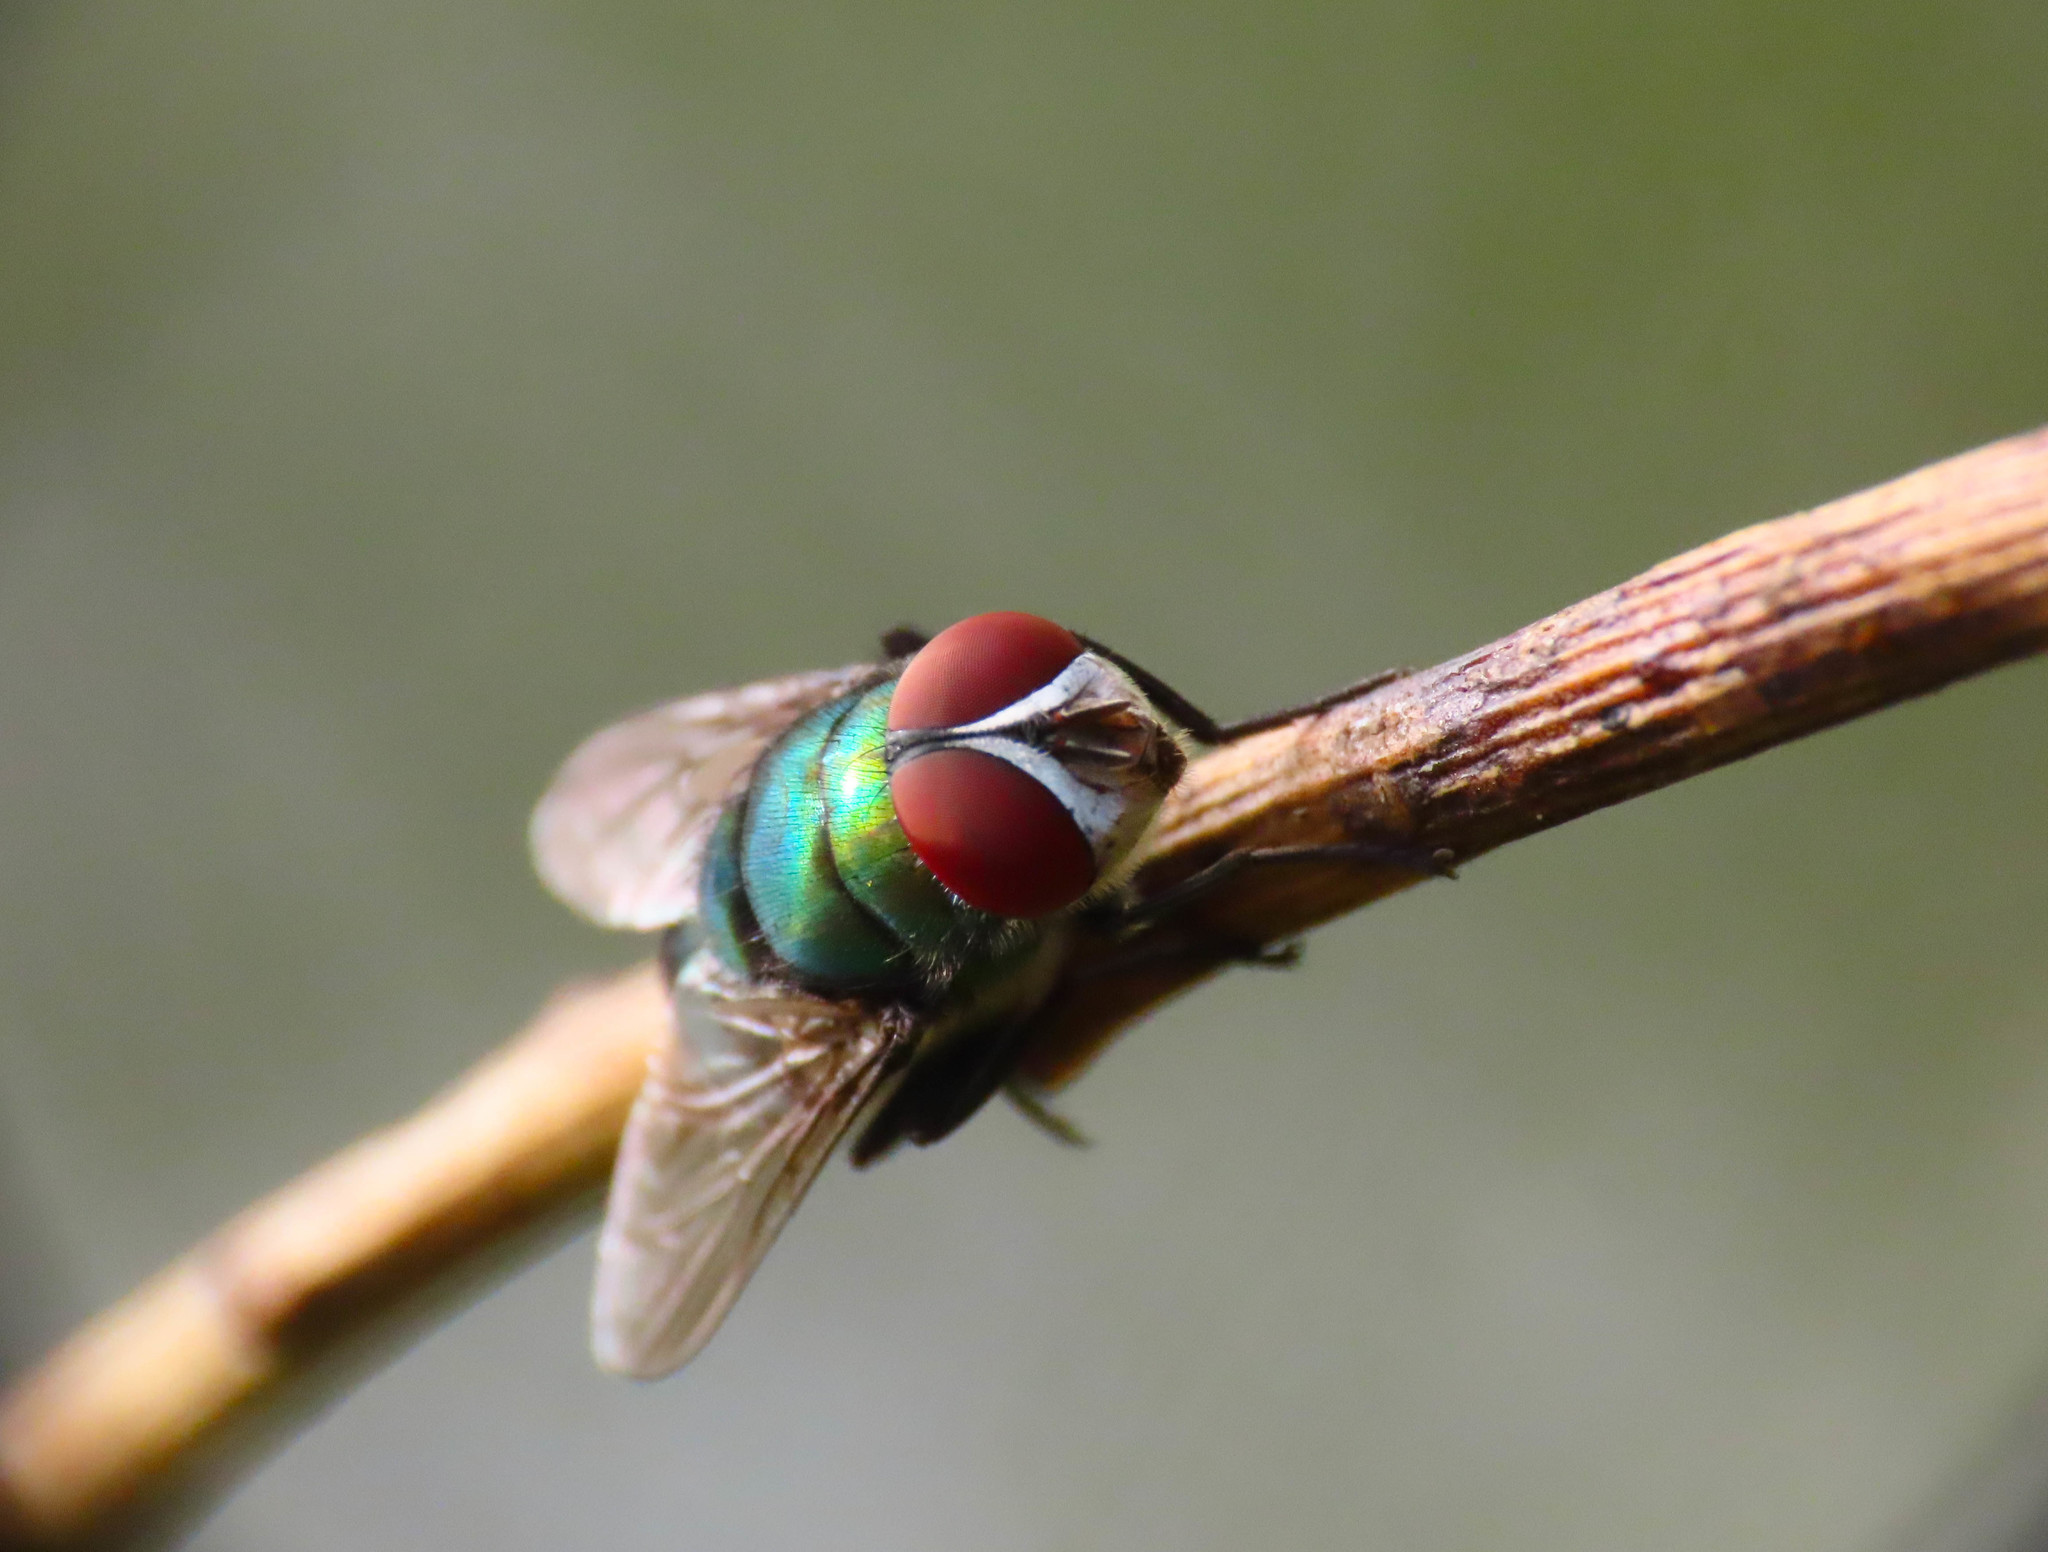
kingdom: Animalia
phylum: Arthropoda
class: Insecta
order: Diptera
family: Calliphoridae
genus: Chrysomya
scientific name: Chrysomya albiceps
